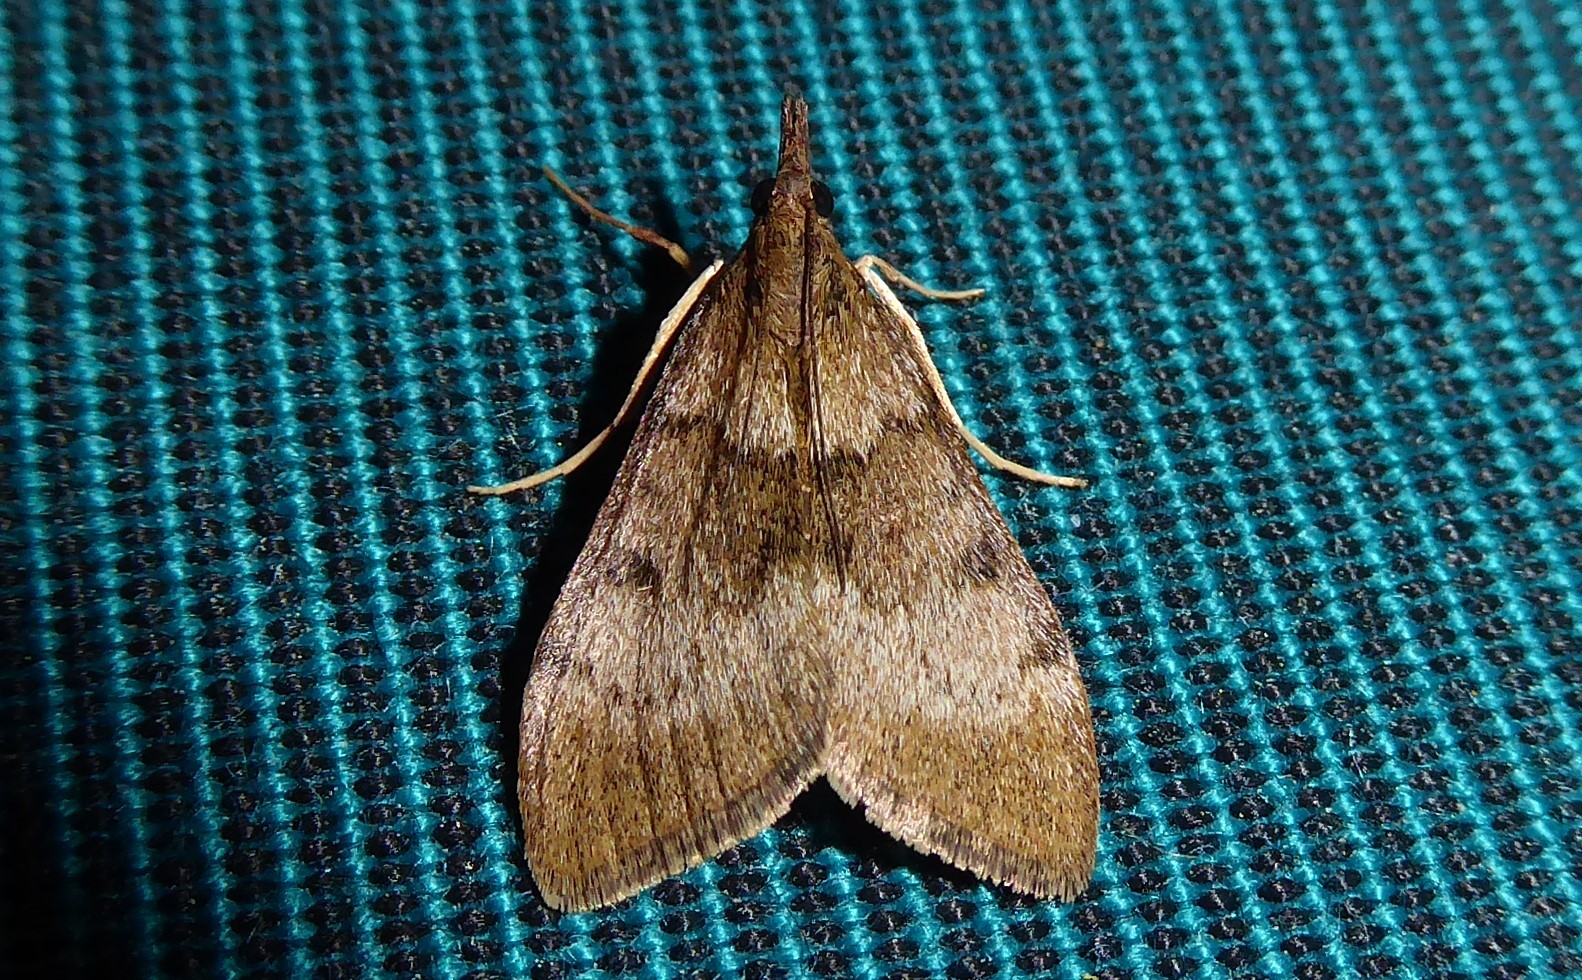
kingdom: Animalia
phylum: Arthropoda
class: Insecta
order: Lepidoptera
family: Crambidae
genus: Uresiphita
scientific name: Uresiphita
